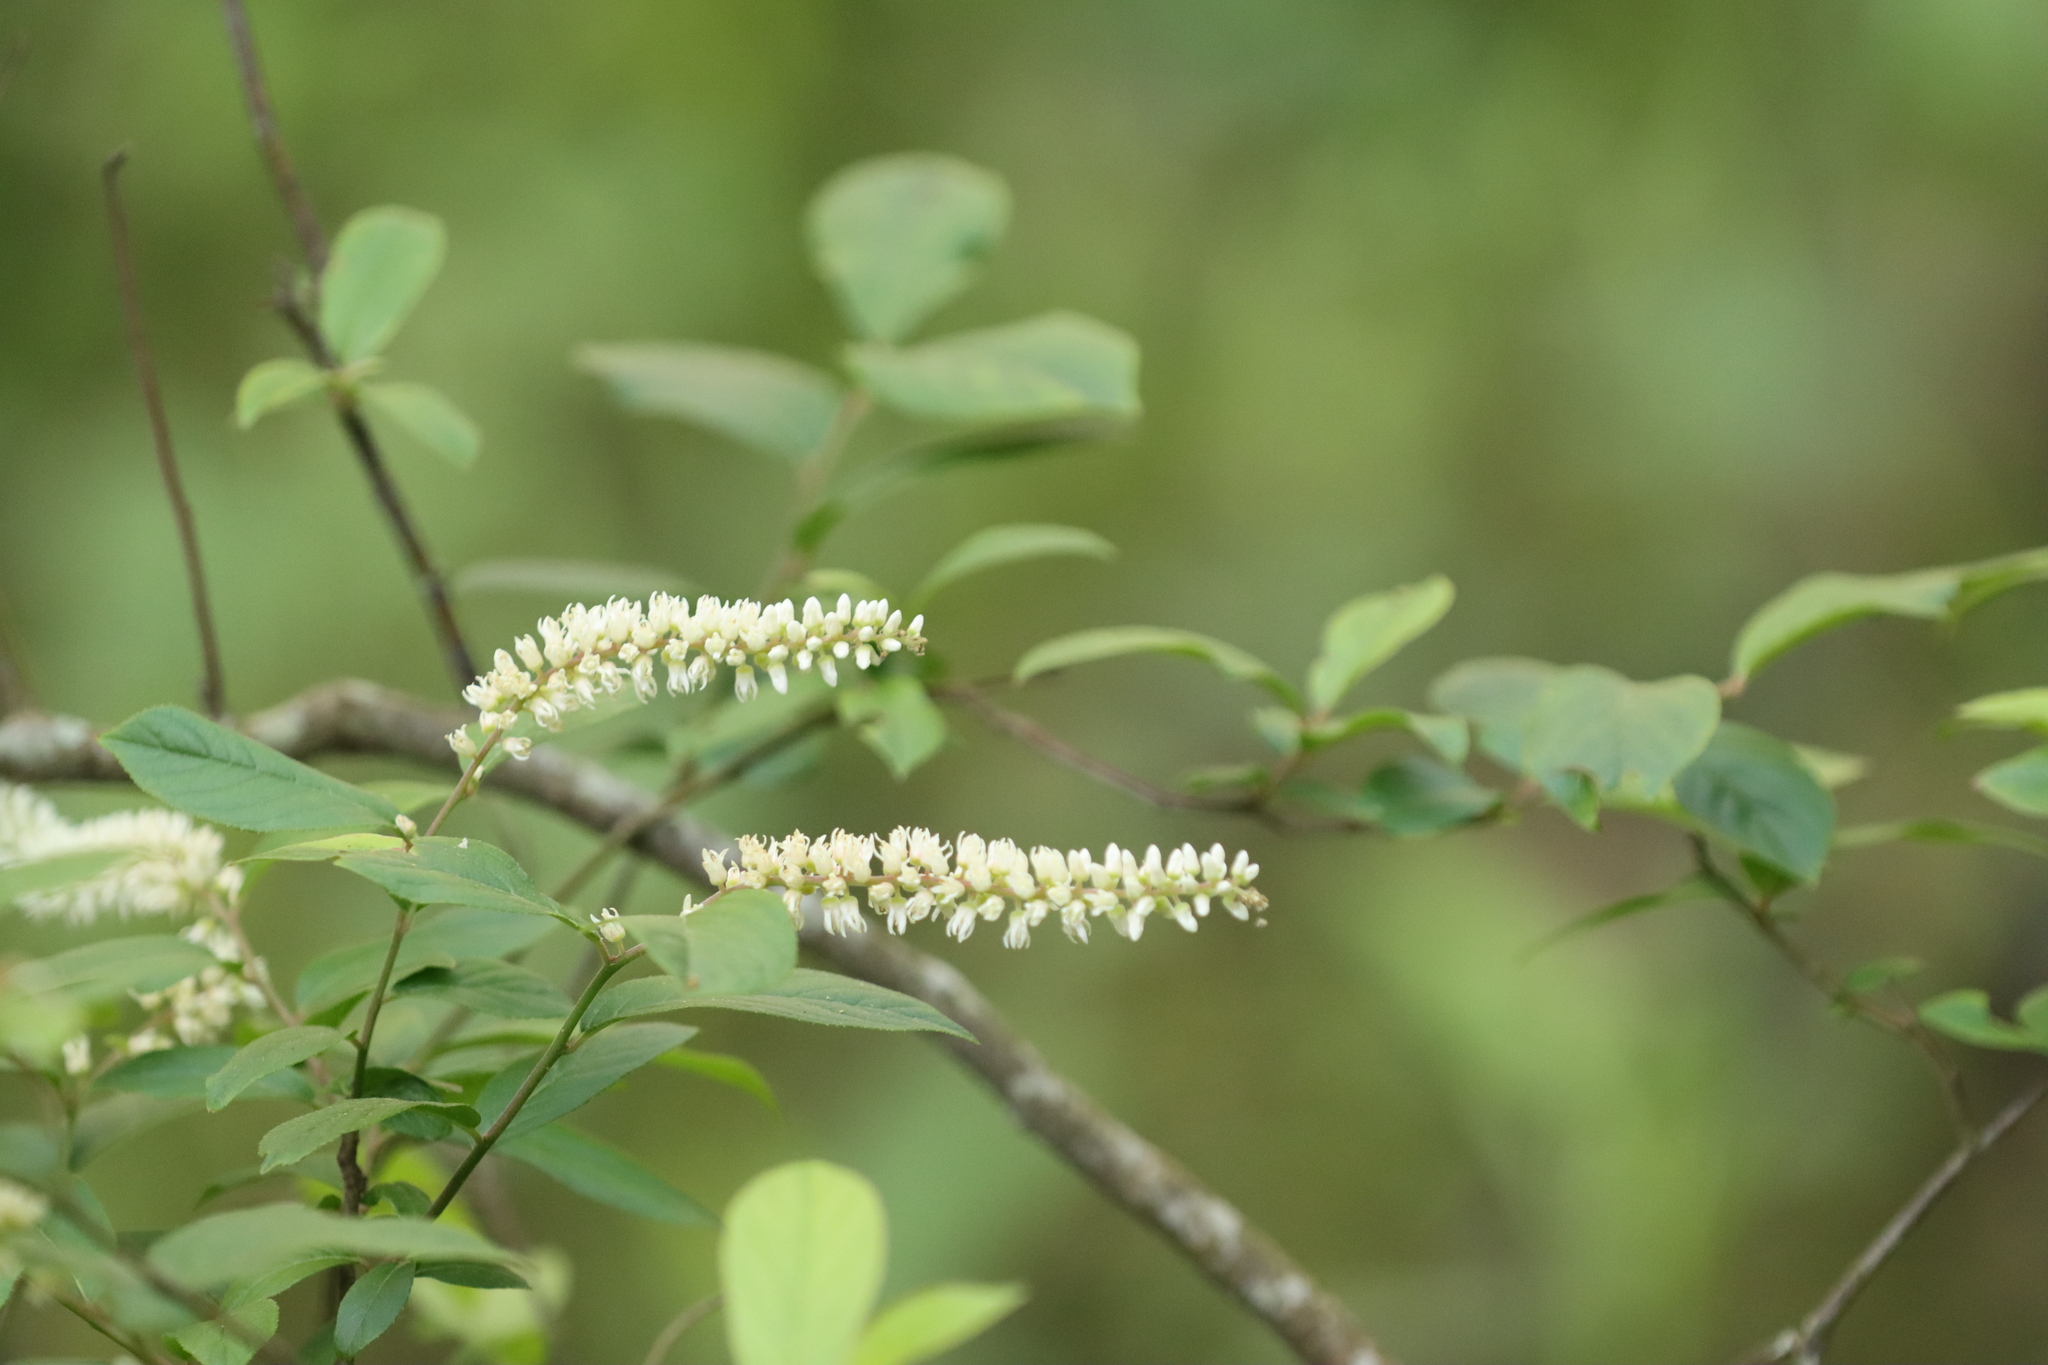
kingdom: Plantae
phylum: Tracheophyta
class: Magnoliopsida
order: Saxifragales
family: Iteaceae
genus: Itea
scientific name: Itea virginica
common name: Sweetspire
